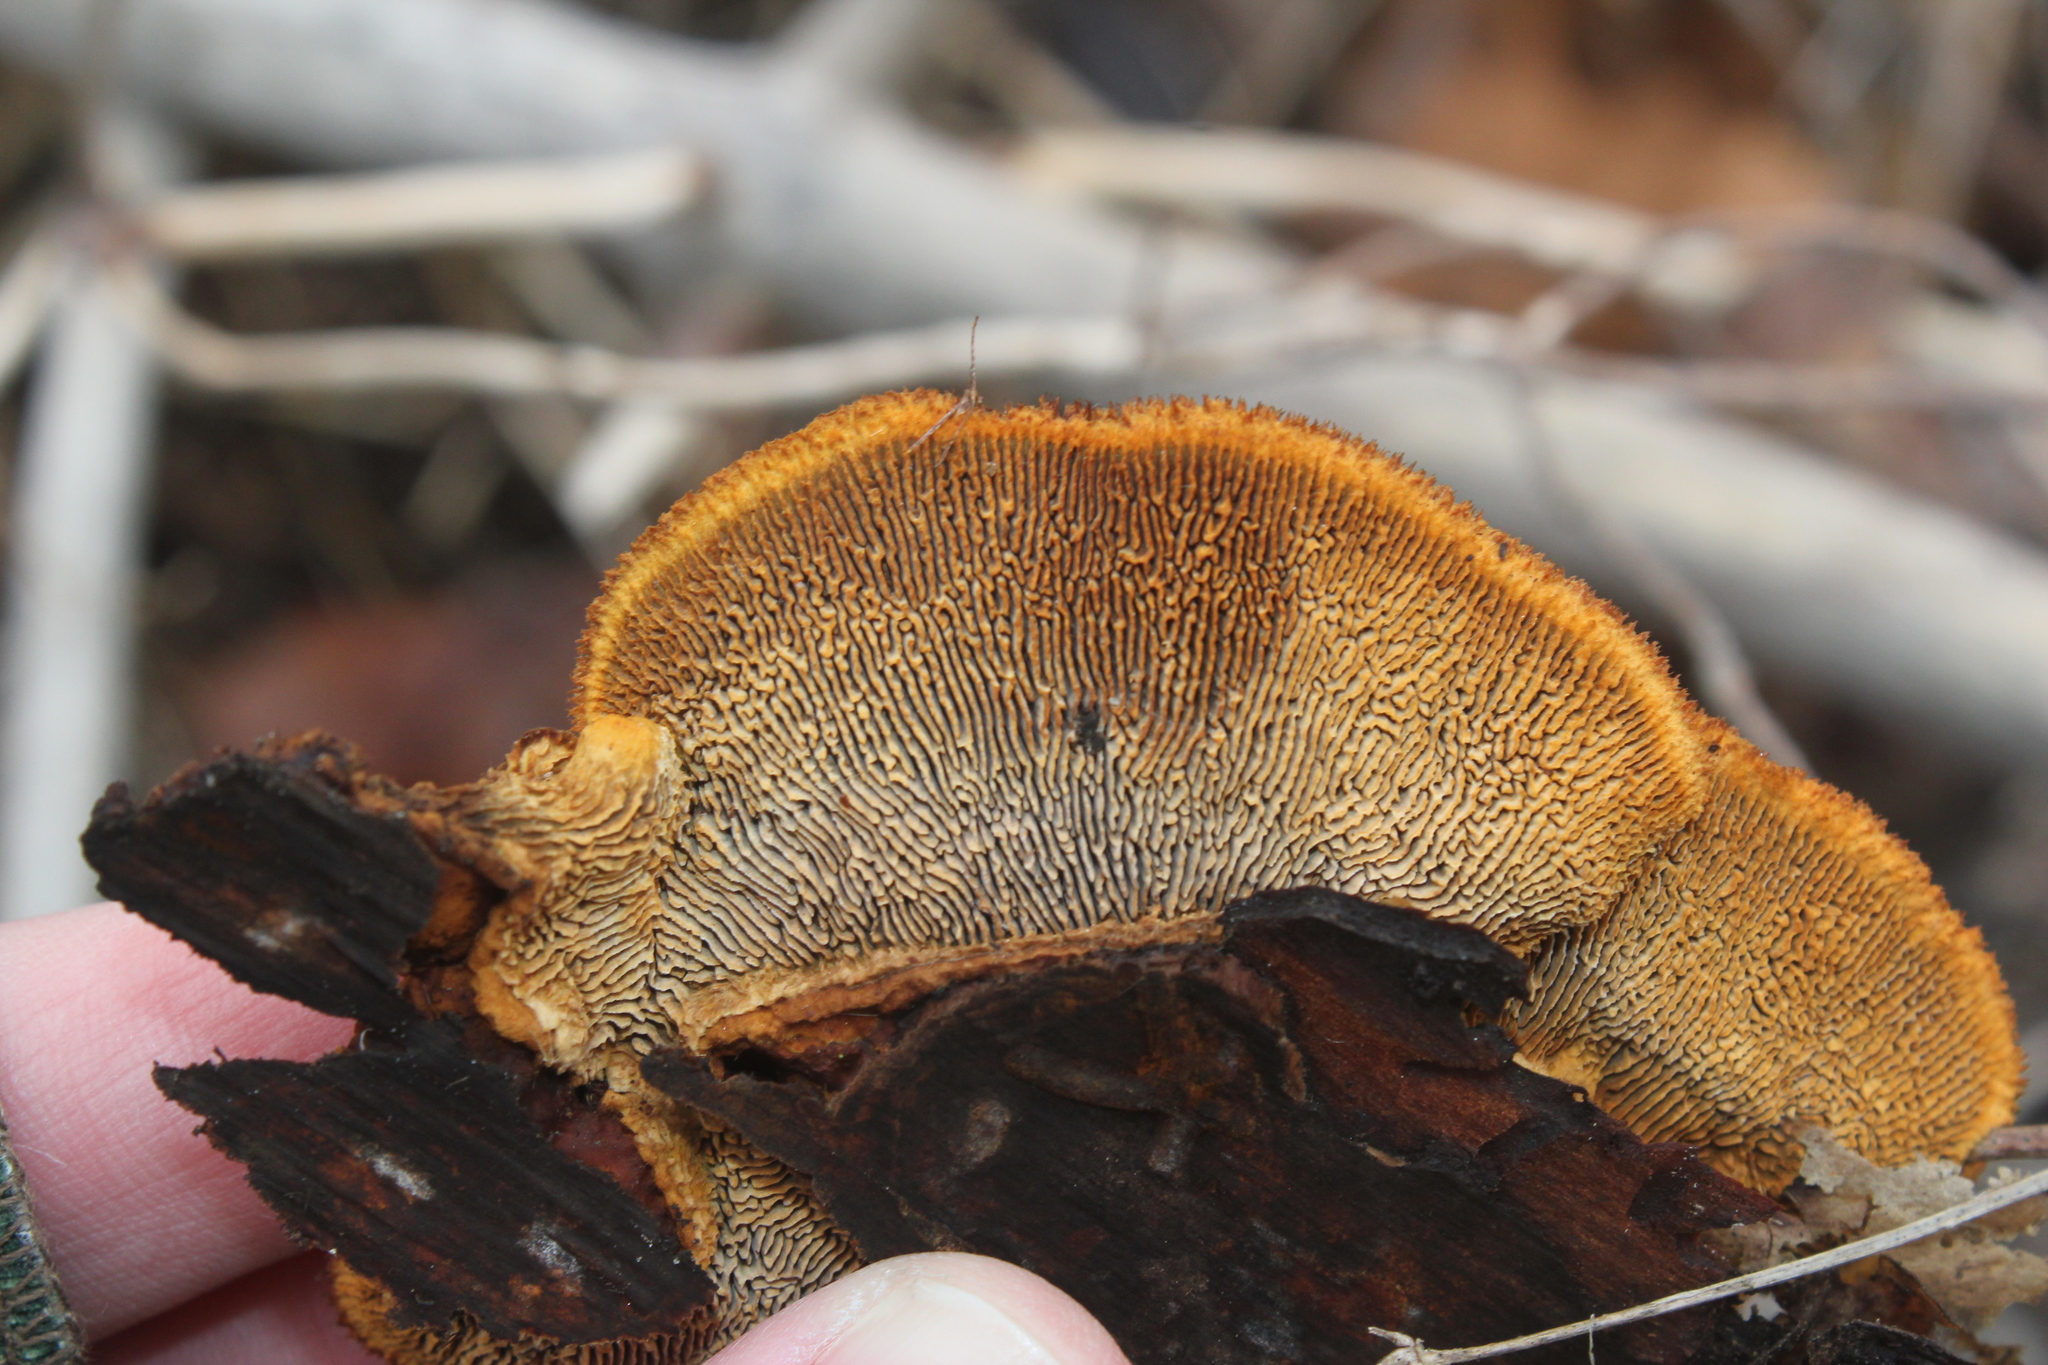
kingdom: Fungi
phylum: Basidiomycota
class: Agaricomycetes
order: Gloeophyllales
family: Gloeophyllaceae
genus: Gloeophyllum
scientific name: Gloeophyllum sepiarium
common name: Conifer mazegill
